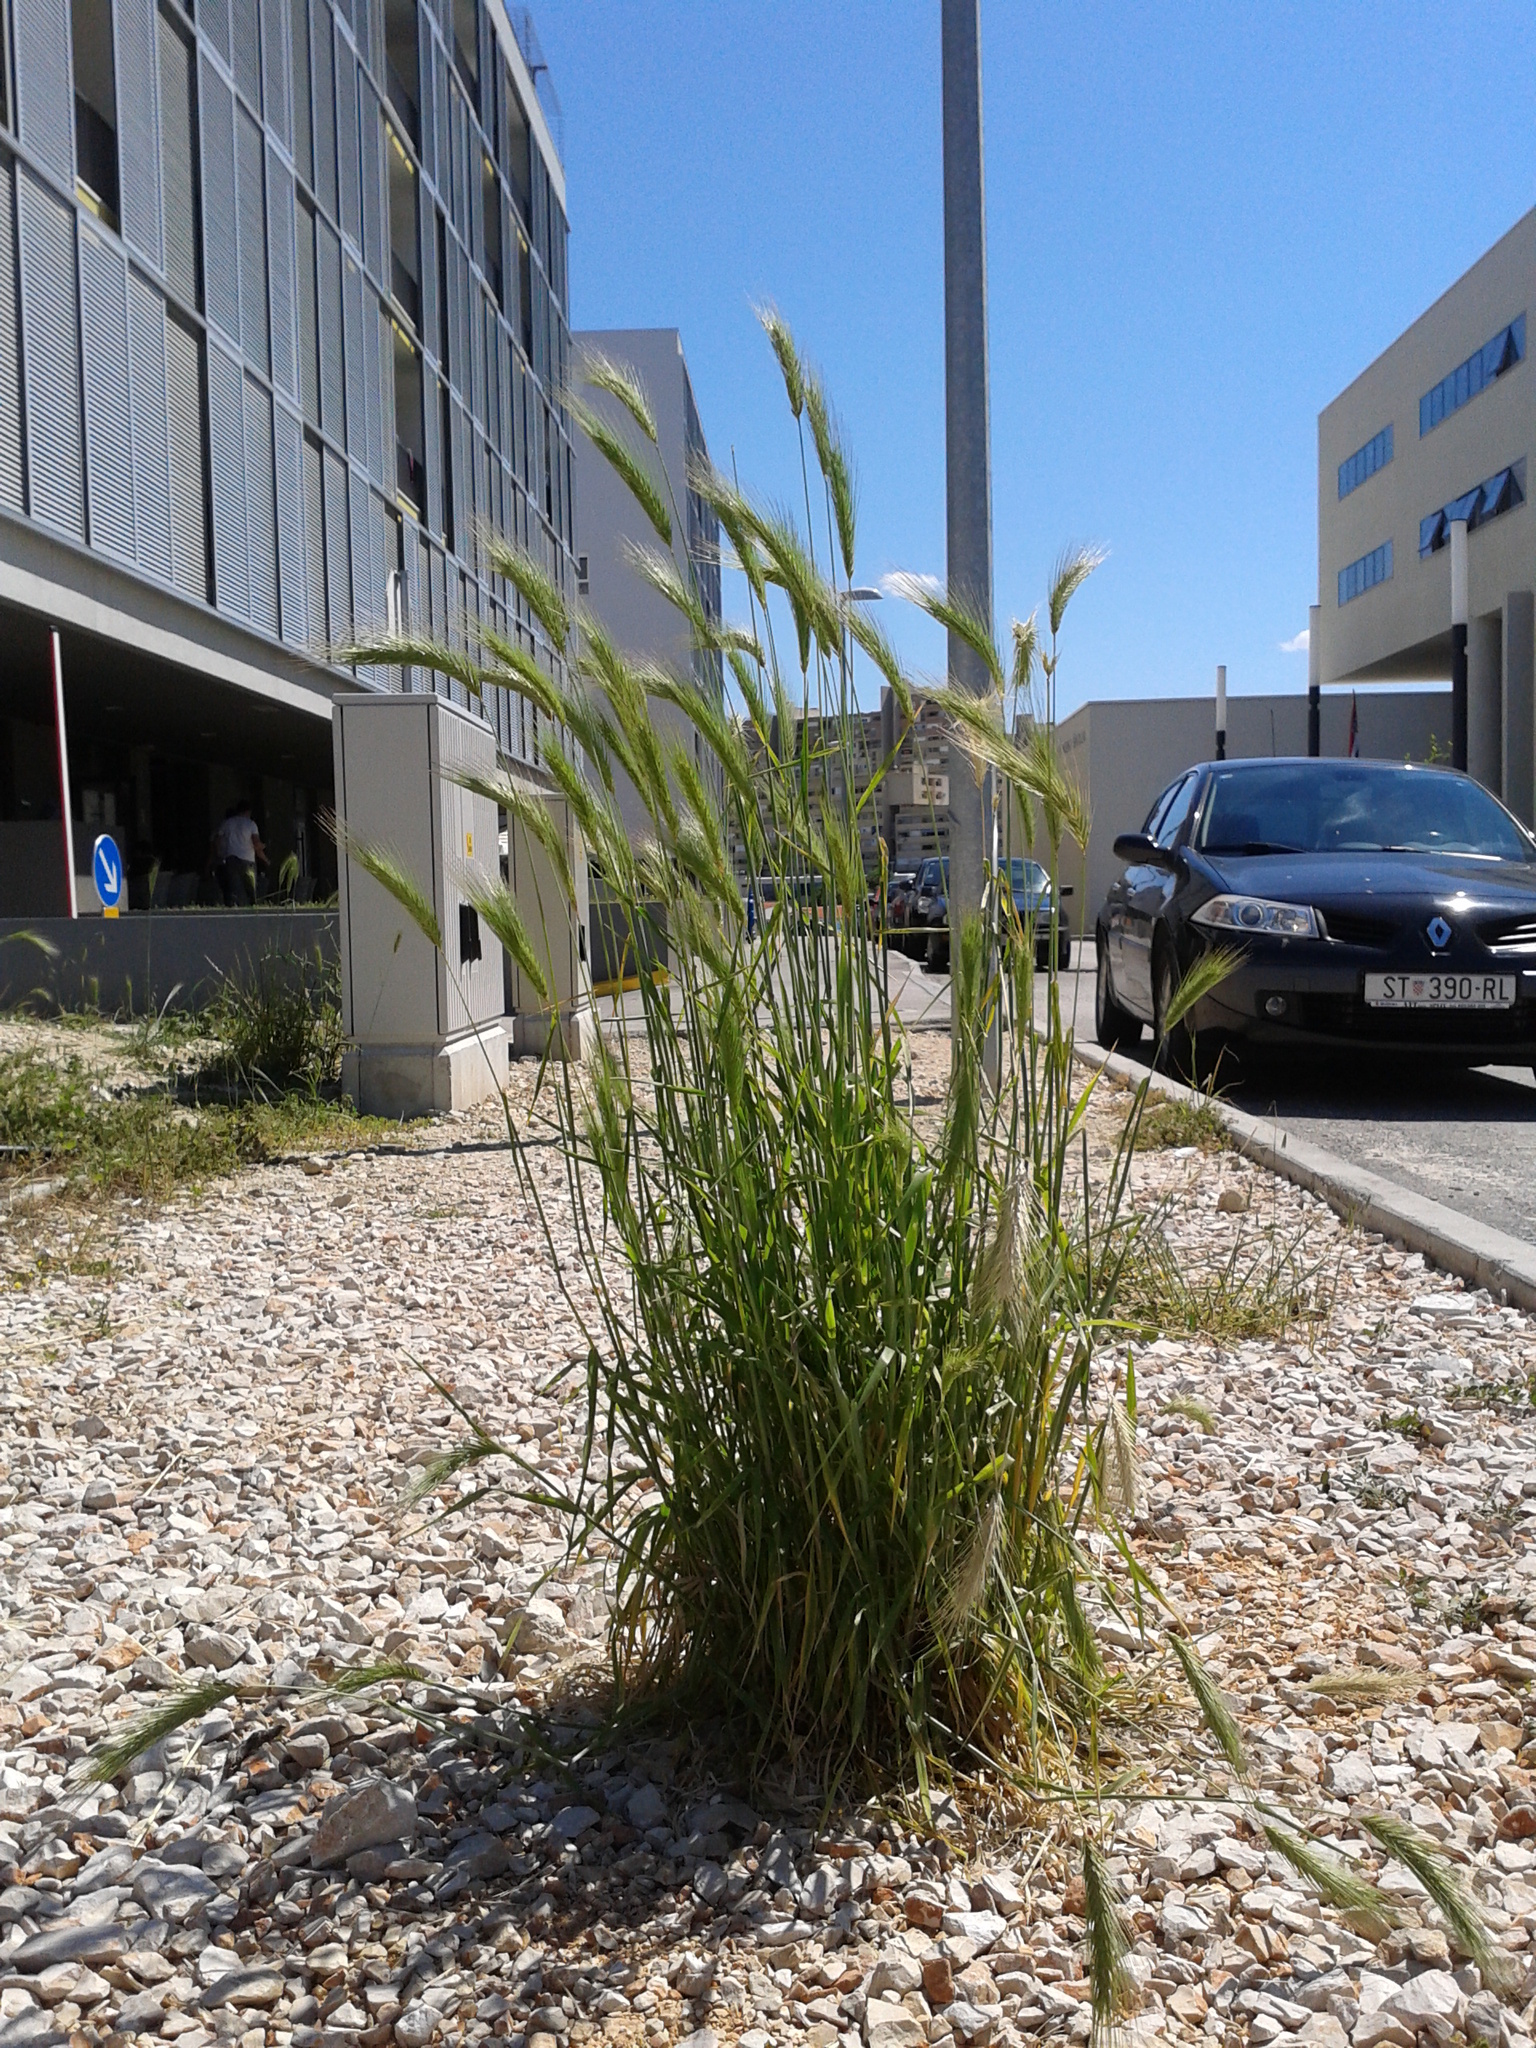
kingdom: Plantae
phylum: Tracheophyta
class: Liliopsida
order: Poales
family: Poaceae
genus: Hordeum
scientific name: Hordeum murinum
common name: Wall barley
